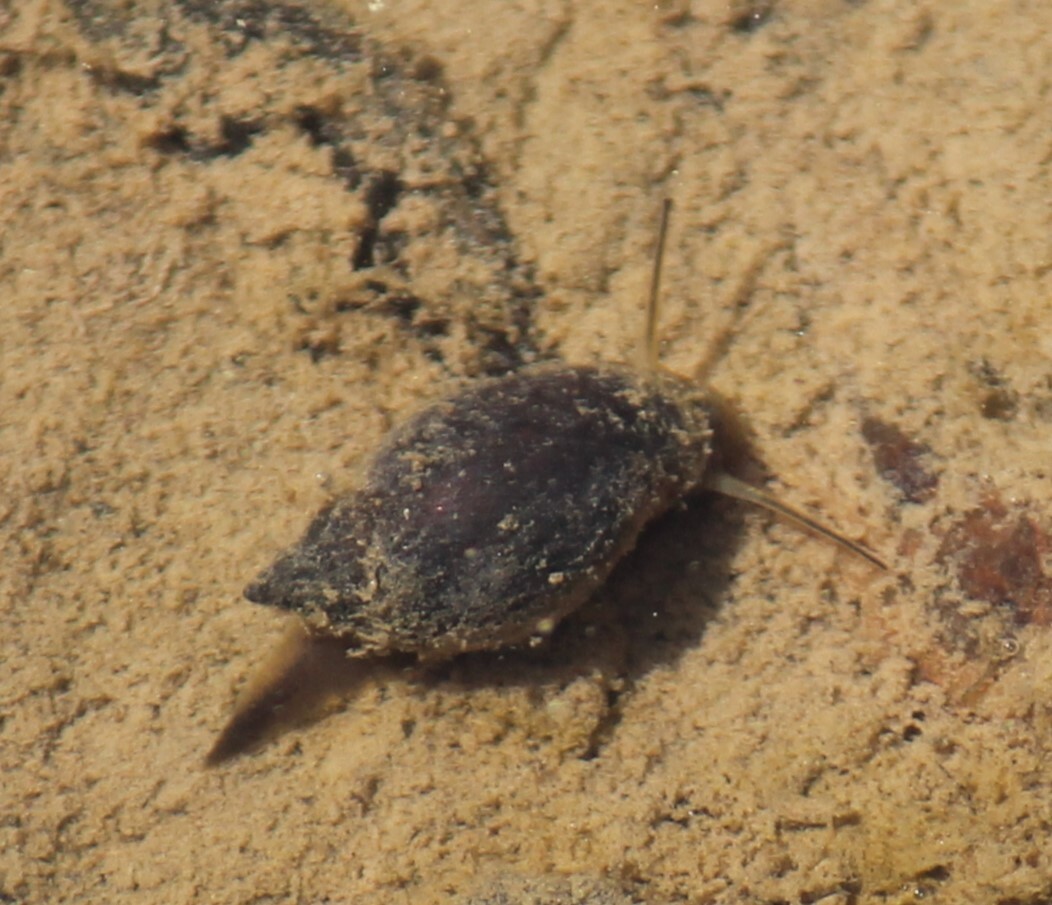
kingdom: Animalia
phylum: Mollusca
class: Gastropoda
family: Physidae
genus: Physella
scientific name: Physella gyrina
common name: Tadpole physa
